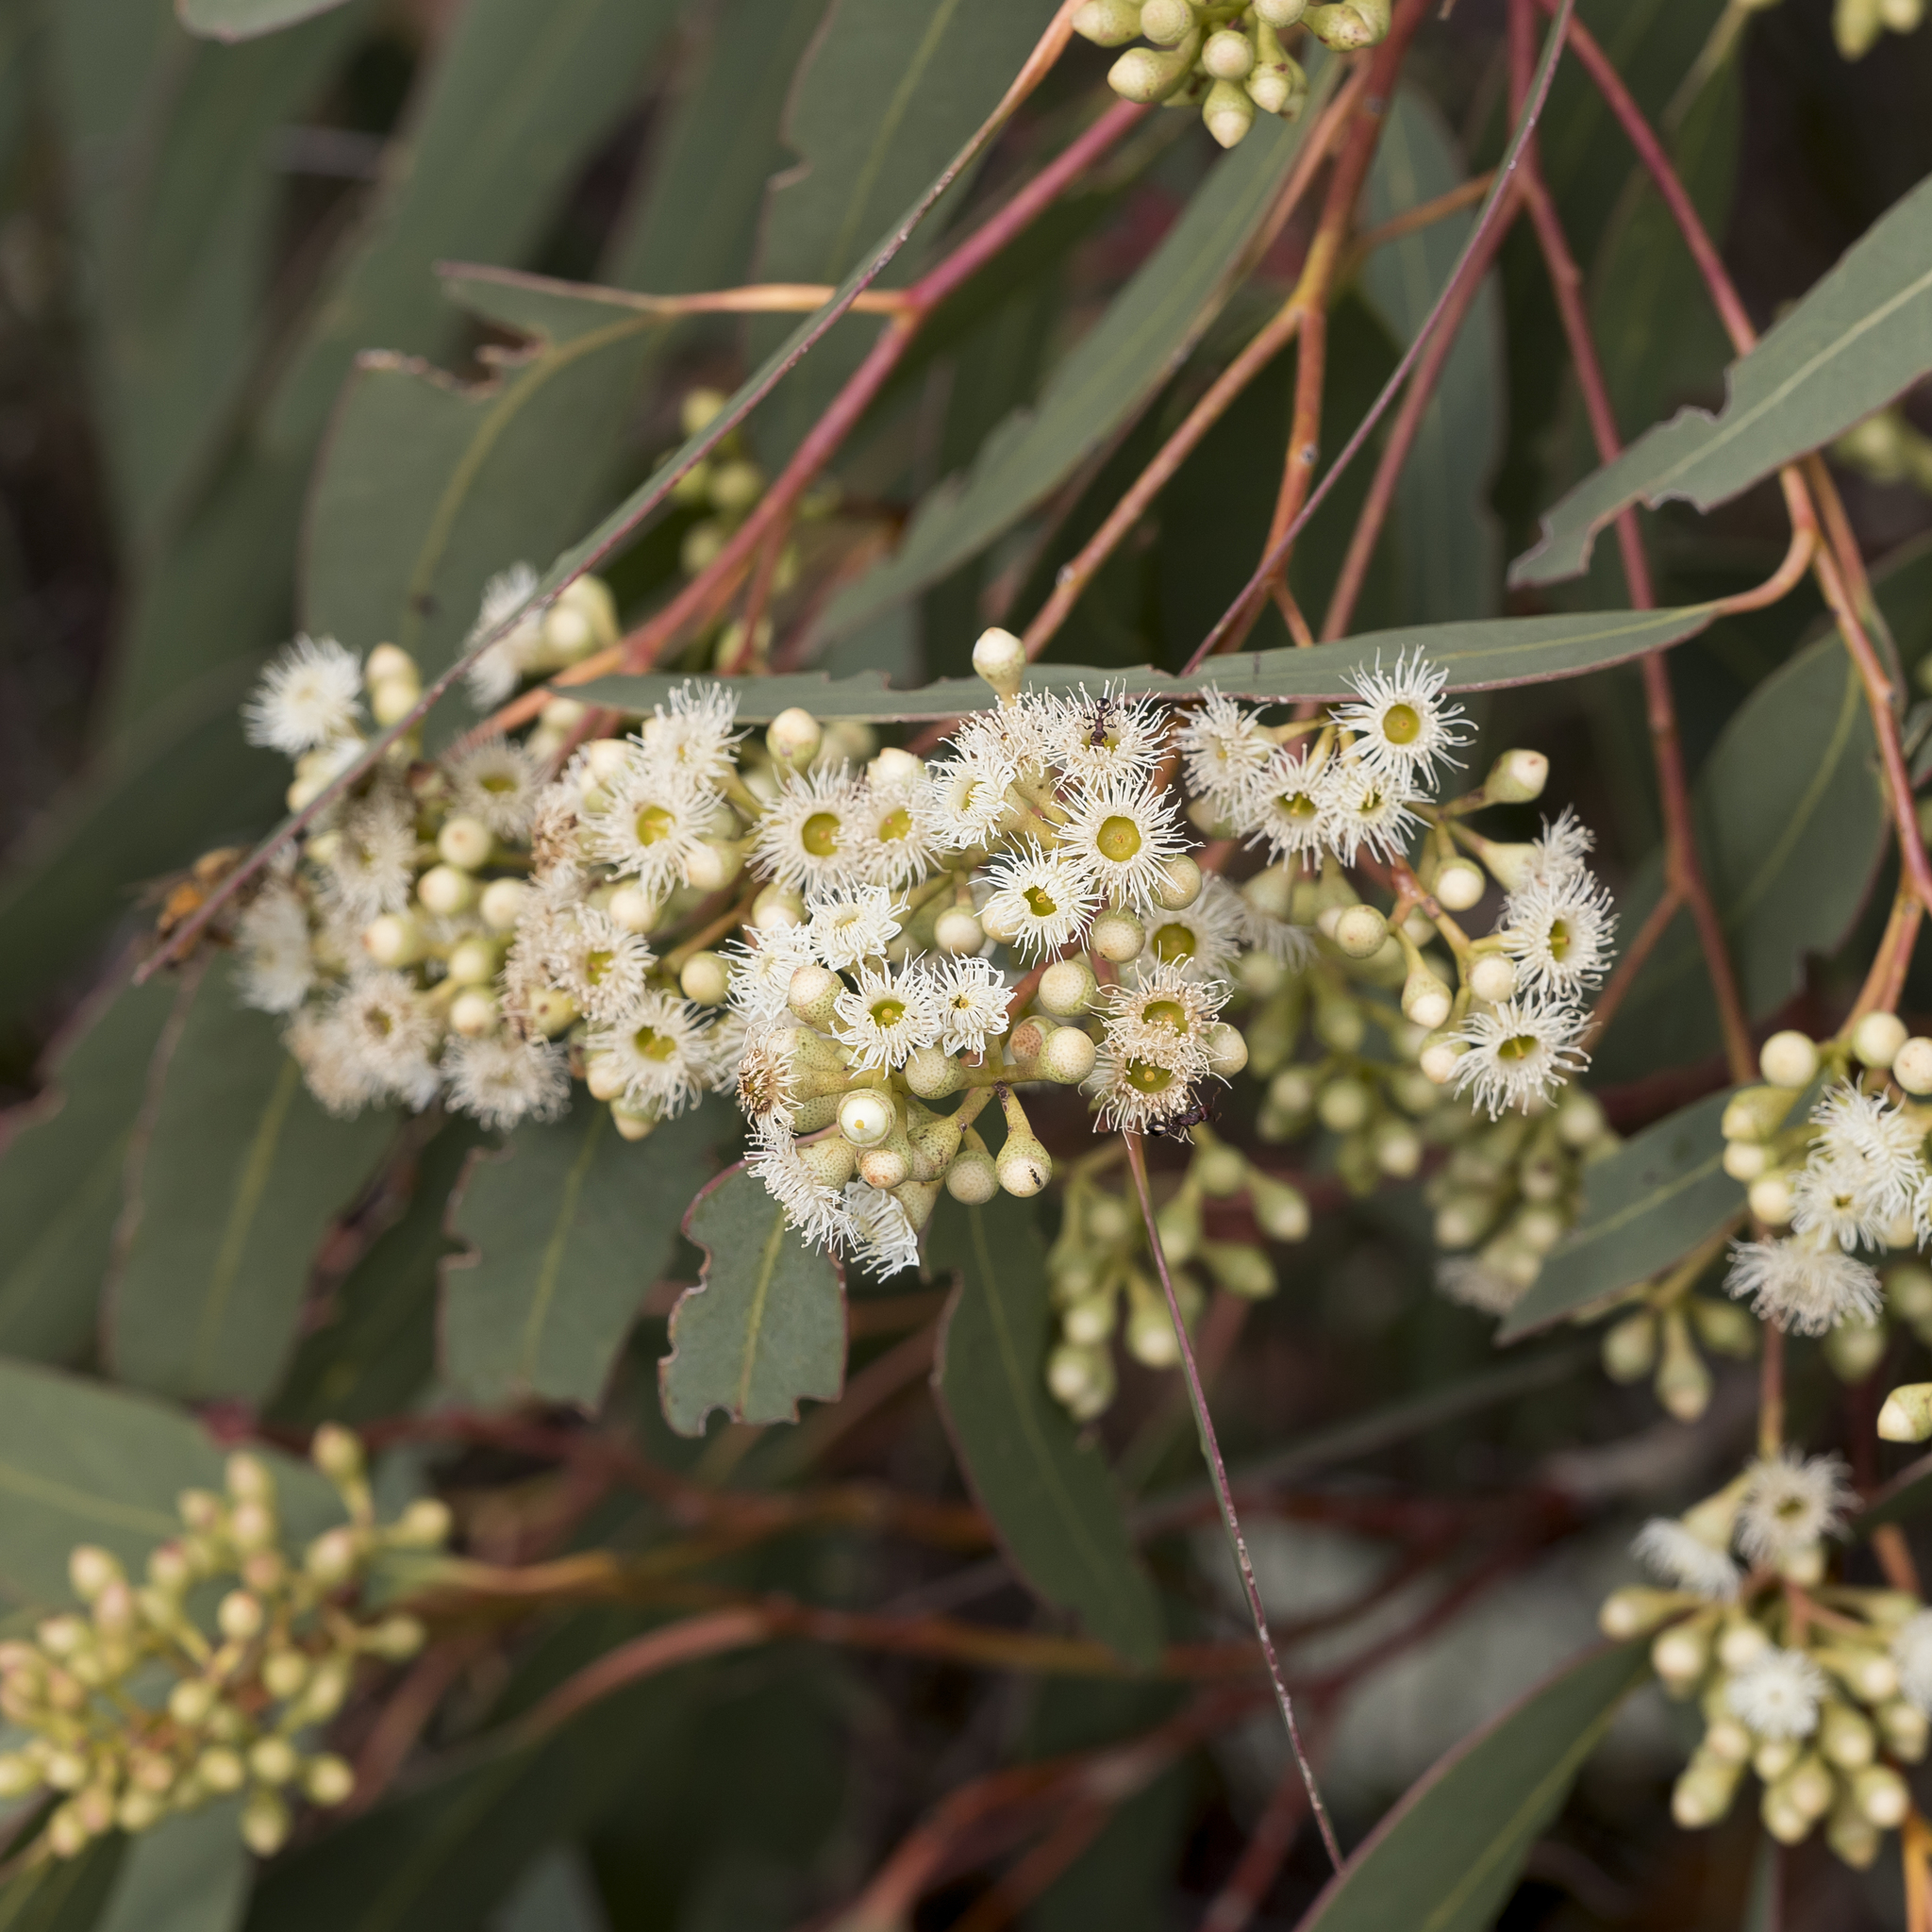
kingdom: Plantae
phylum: Tracheophyta
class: Magnoliopsida
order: Myrtales
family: Myrtaceae
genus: Eucalyptus
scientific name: Eucalyptus fasciculosa
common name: Hill gum
